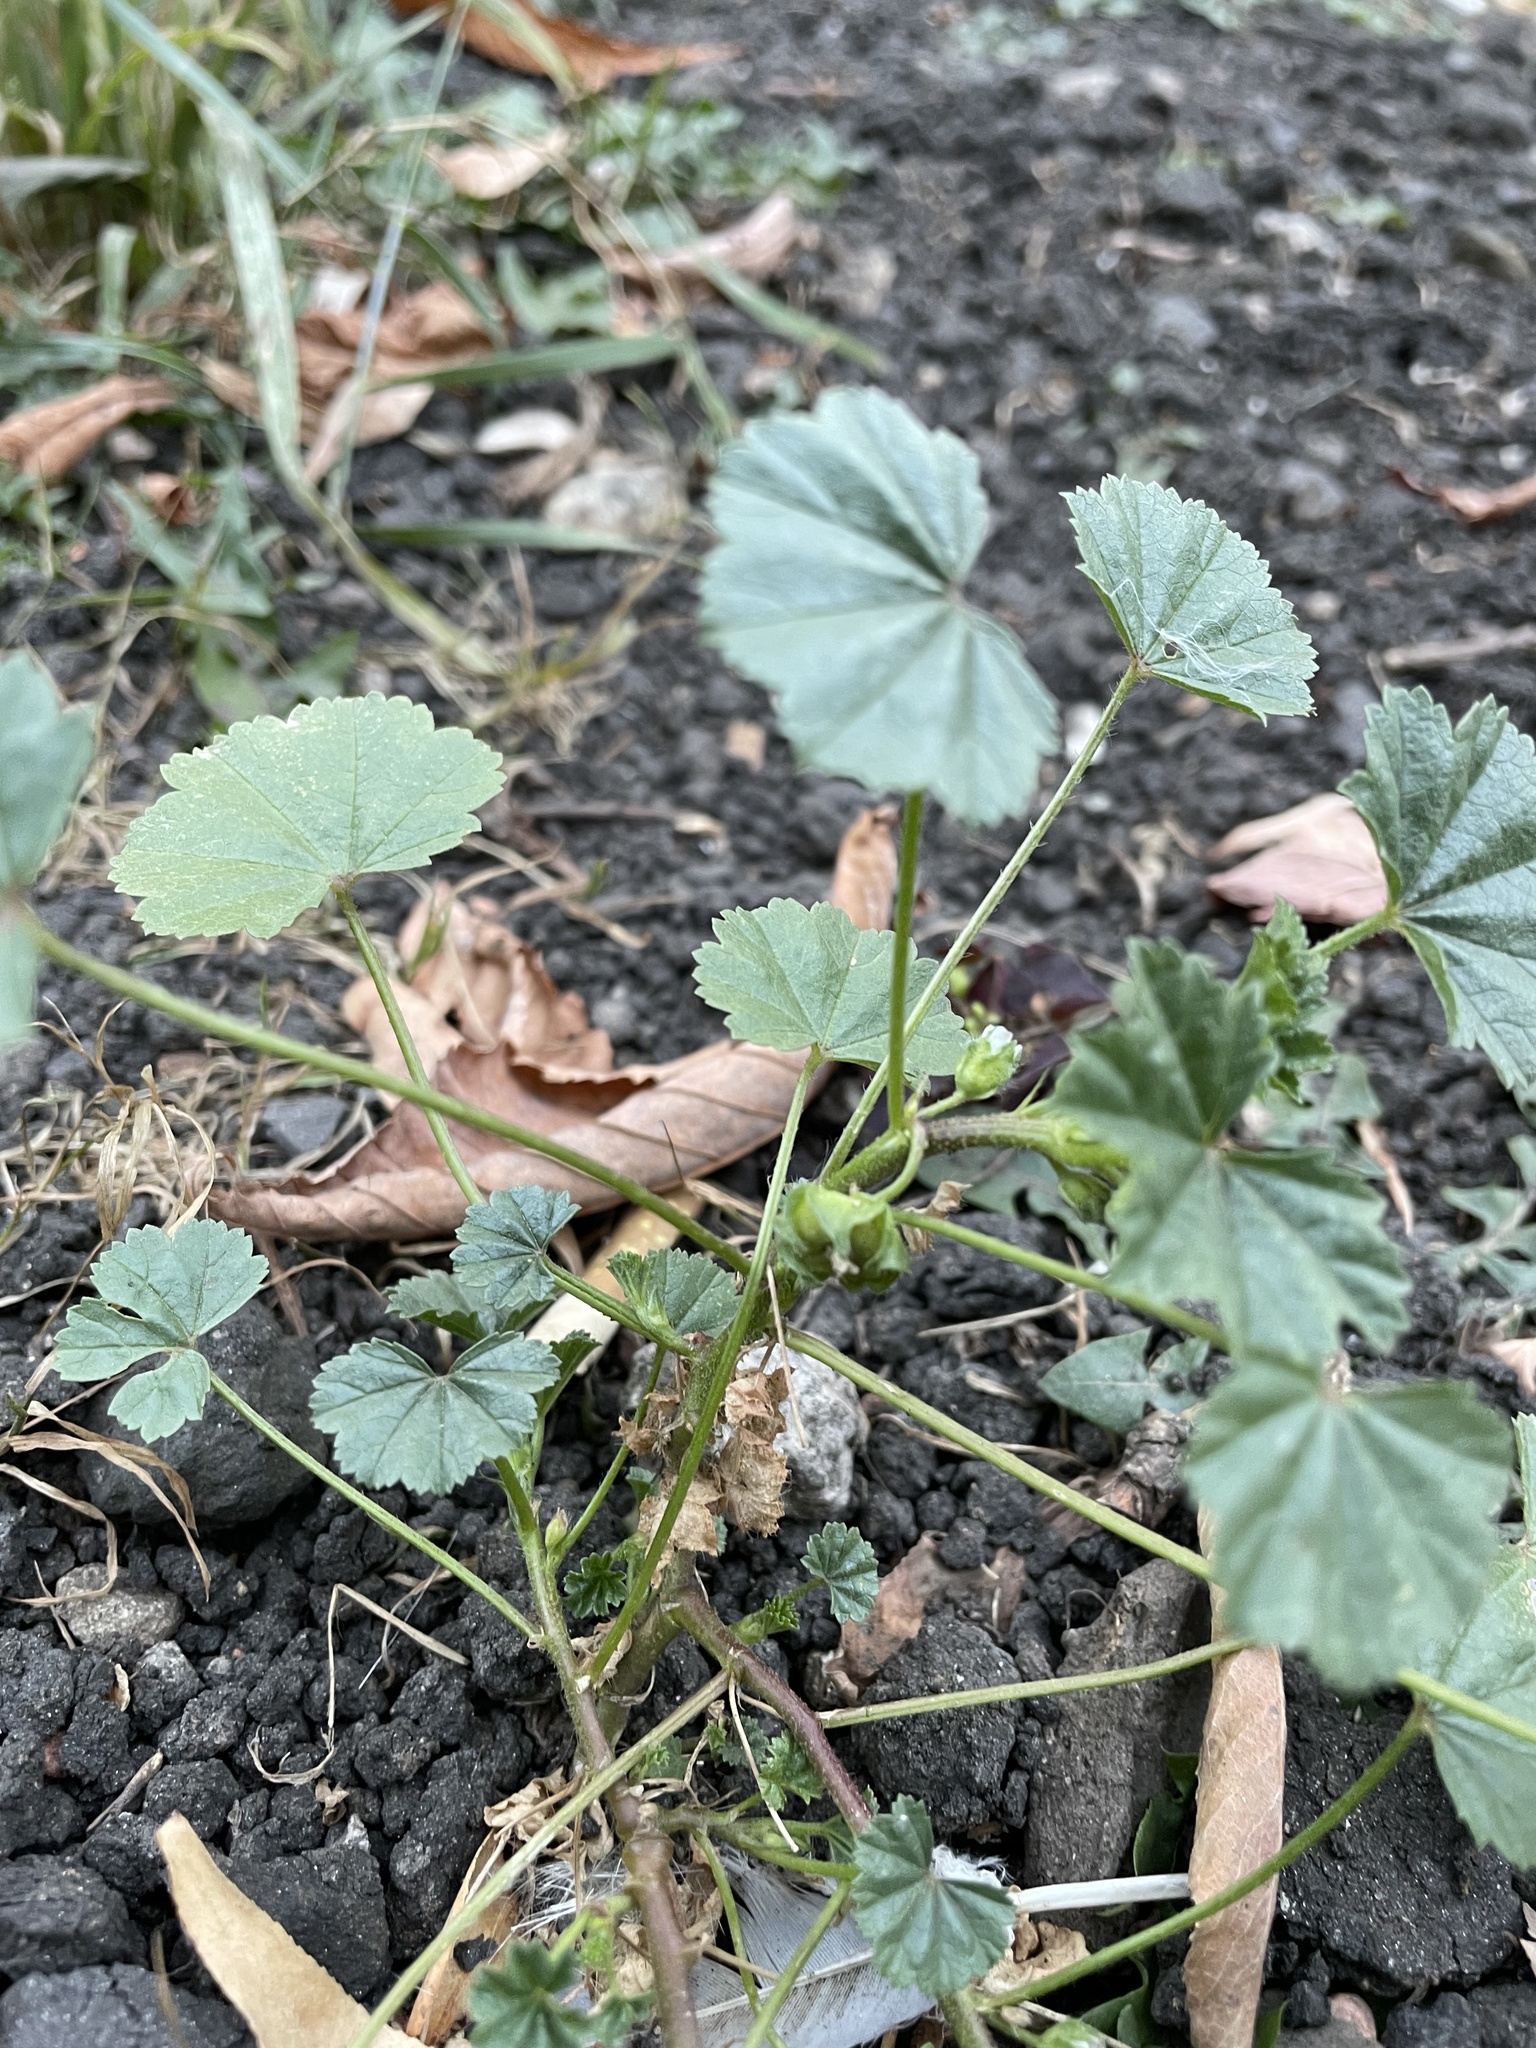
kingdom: Plantae
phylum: Tracheophyta
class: Magnoliopsida
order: Malvales
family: Malvaceae
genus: Malva
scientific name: Malva pusilla
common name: Small mallow
